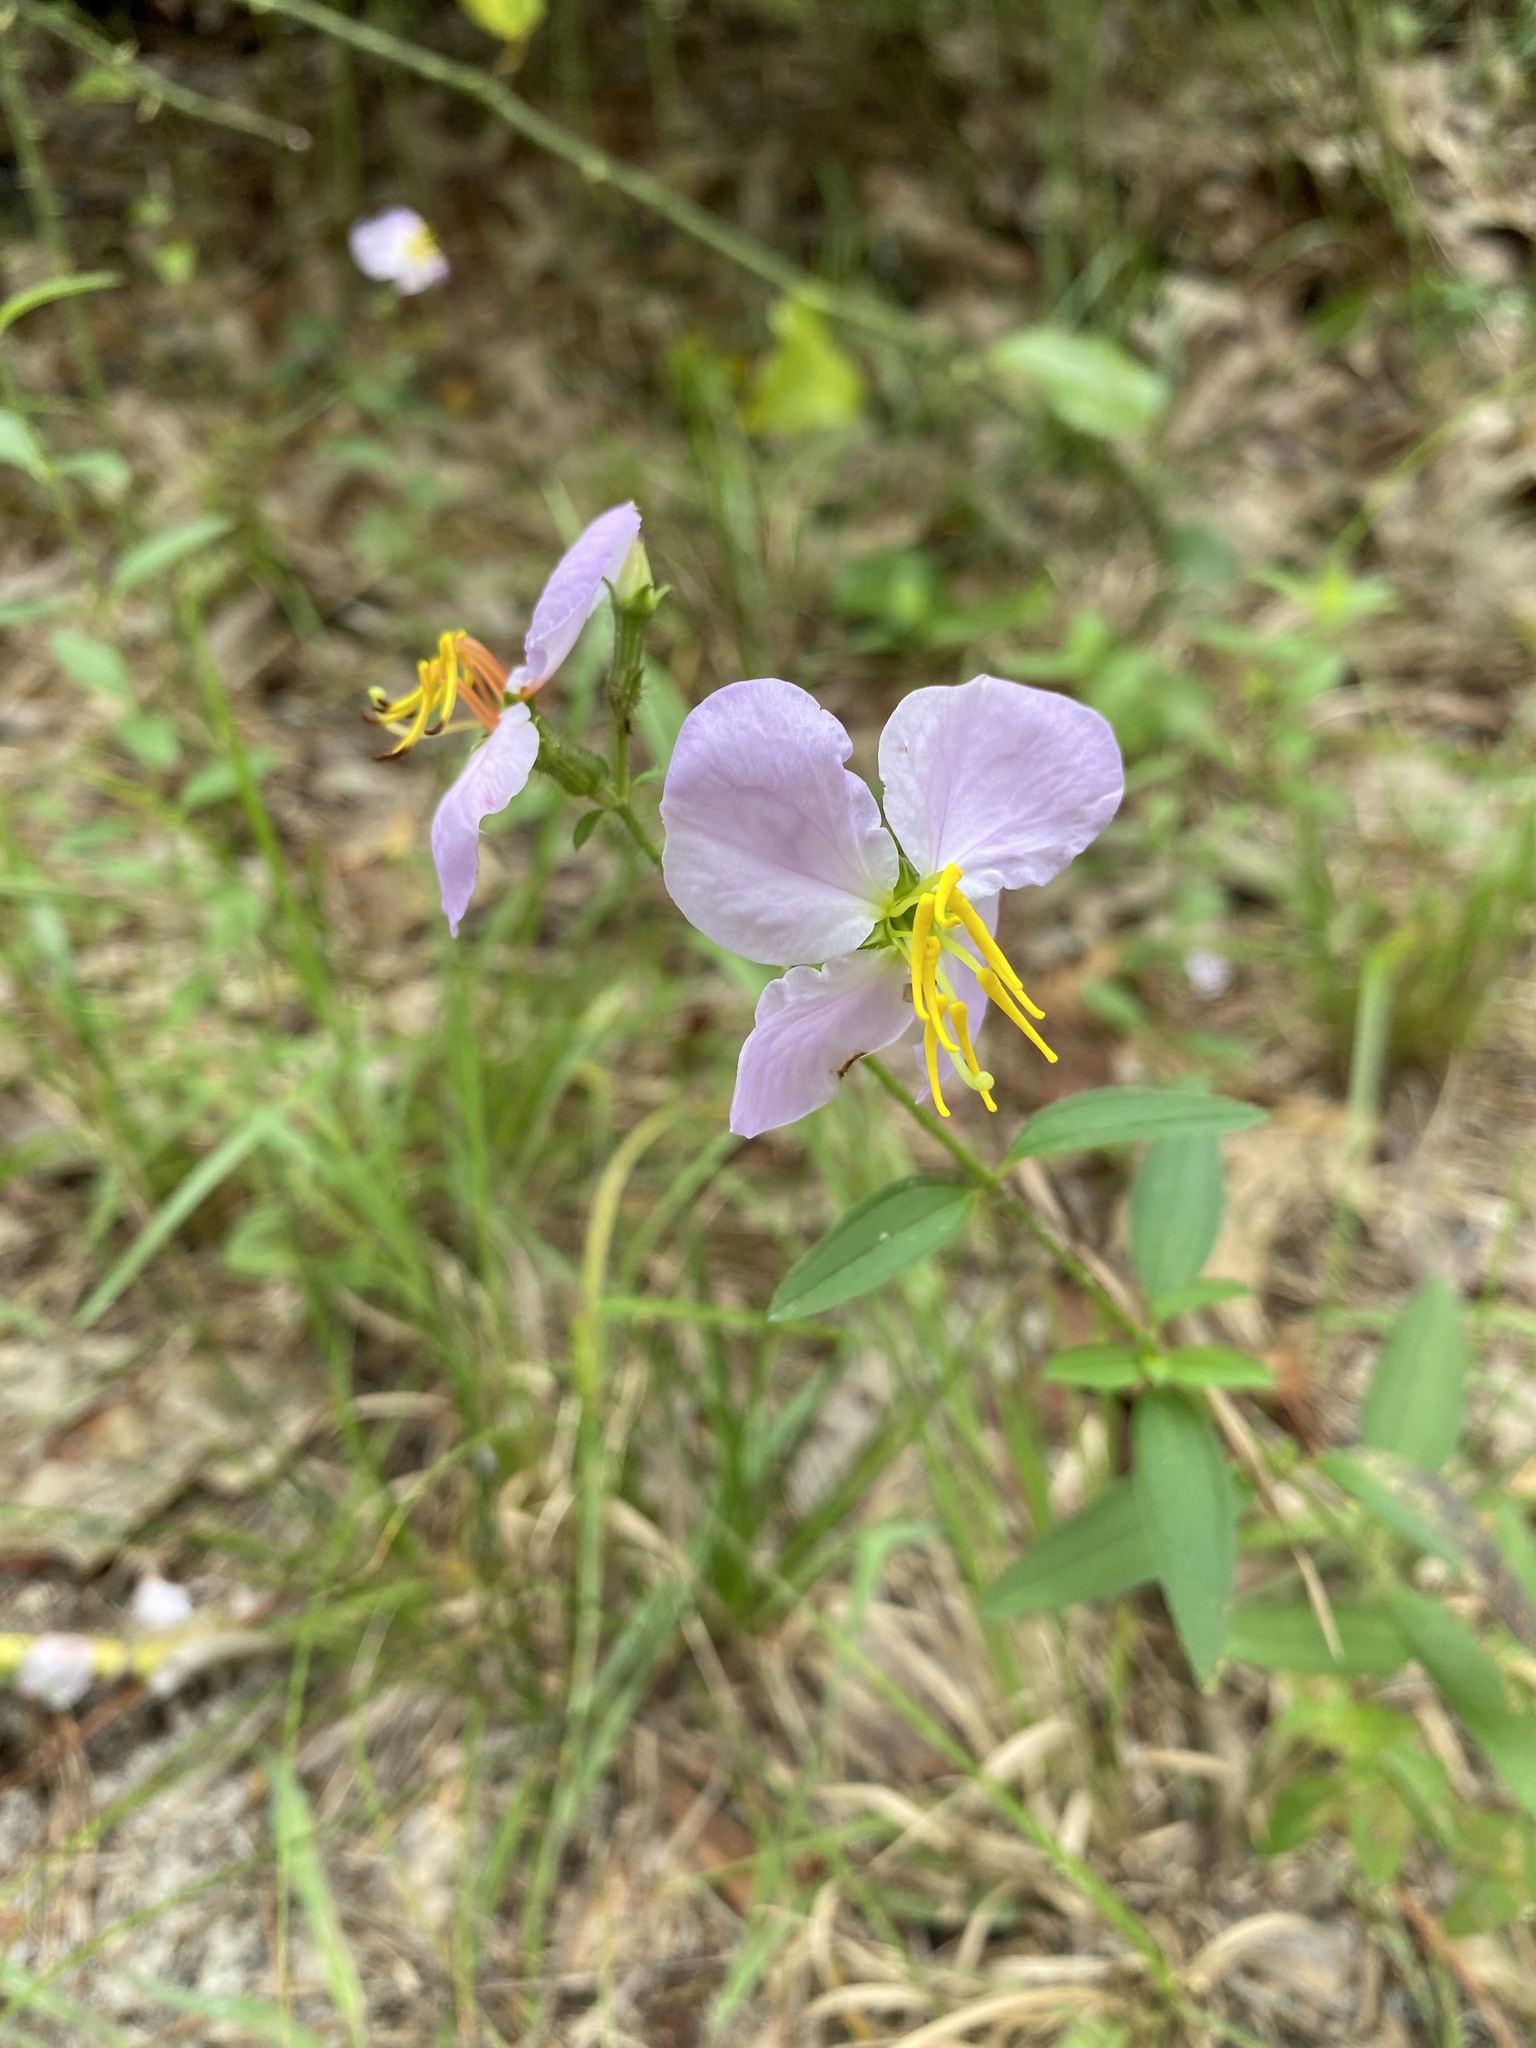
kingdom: Plantae
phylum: Tracheophyta
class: Magnoliopsida
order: Myrtales
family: Melastomataceae
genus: Rhexia
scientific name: Rhexia mariana
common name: Dull meadow-pitcher
